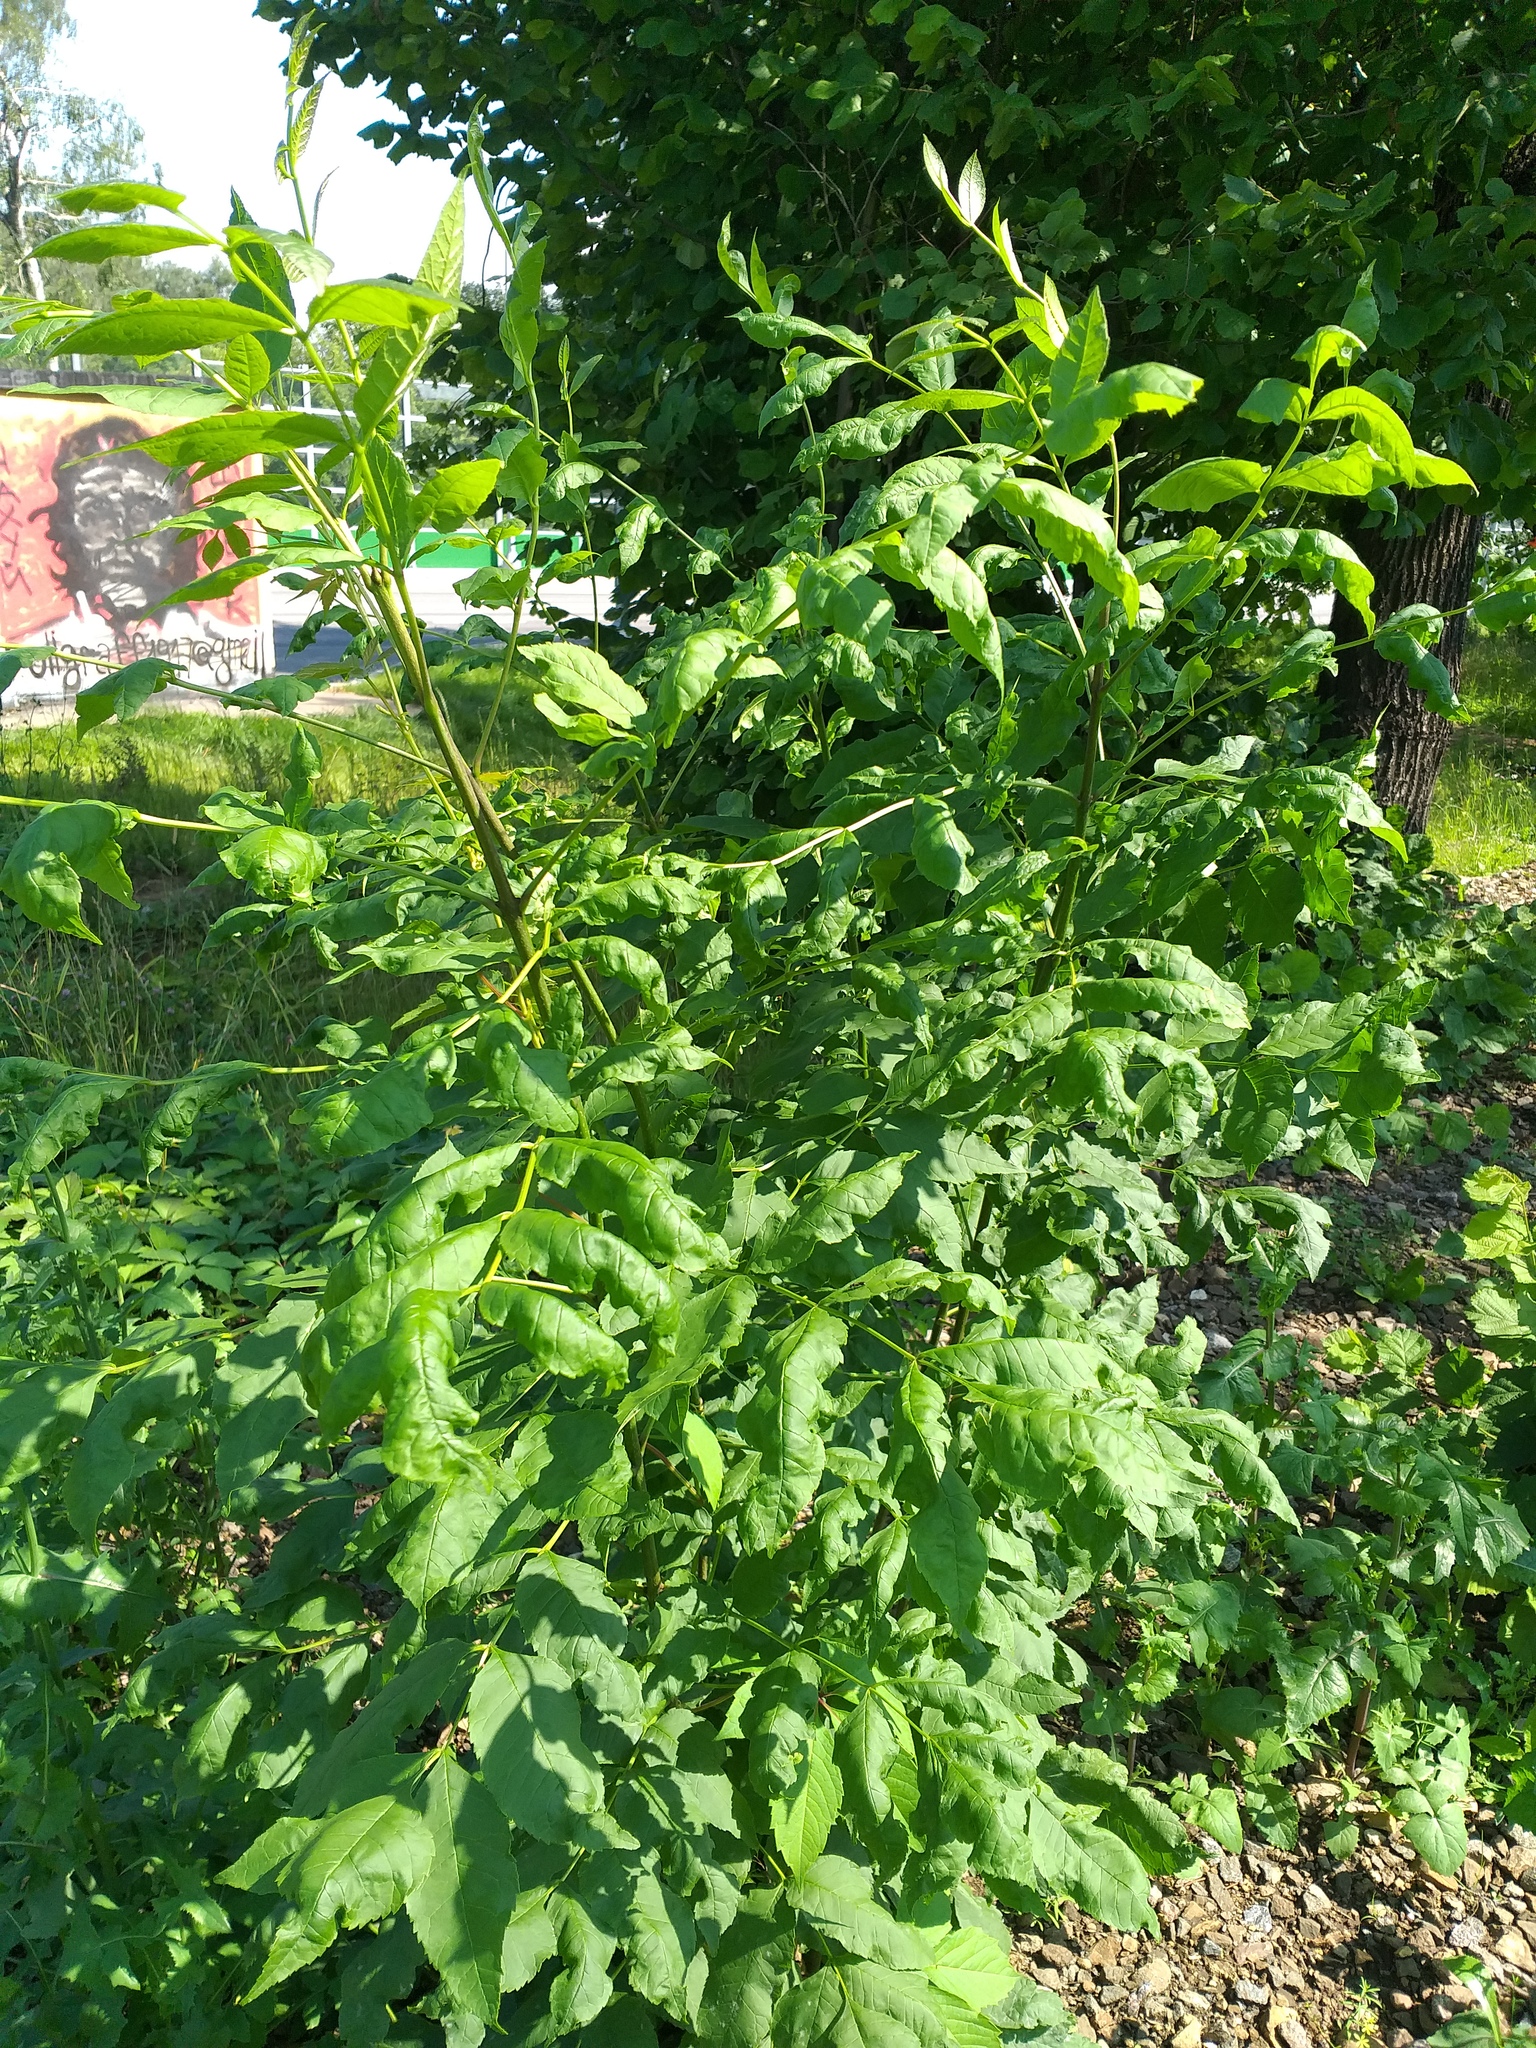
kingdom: Plantae
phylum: Tracheophyta
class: Magnoliopsida
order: Lamiales
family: Oleaceae
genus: Fraxinus
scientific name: Fraxinus pennsylvanica
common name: Green ash
